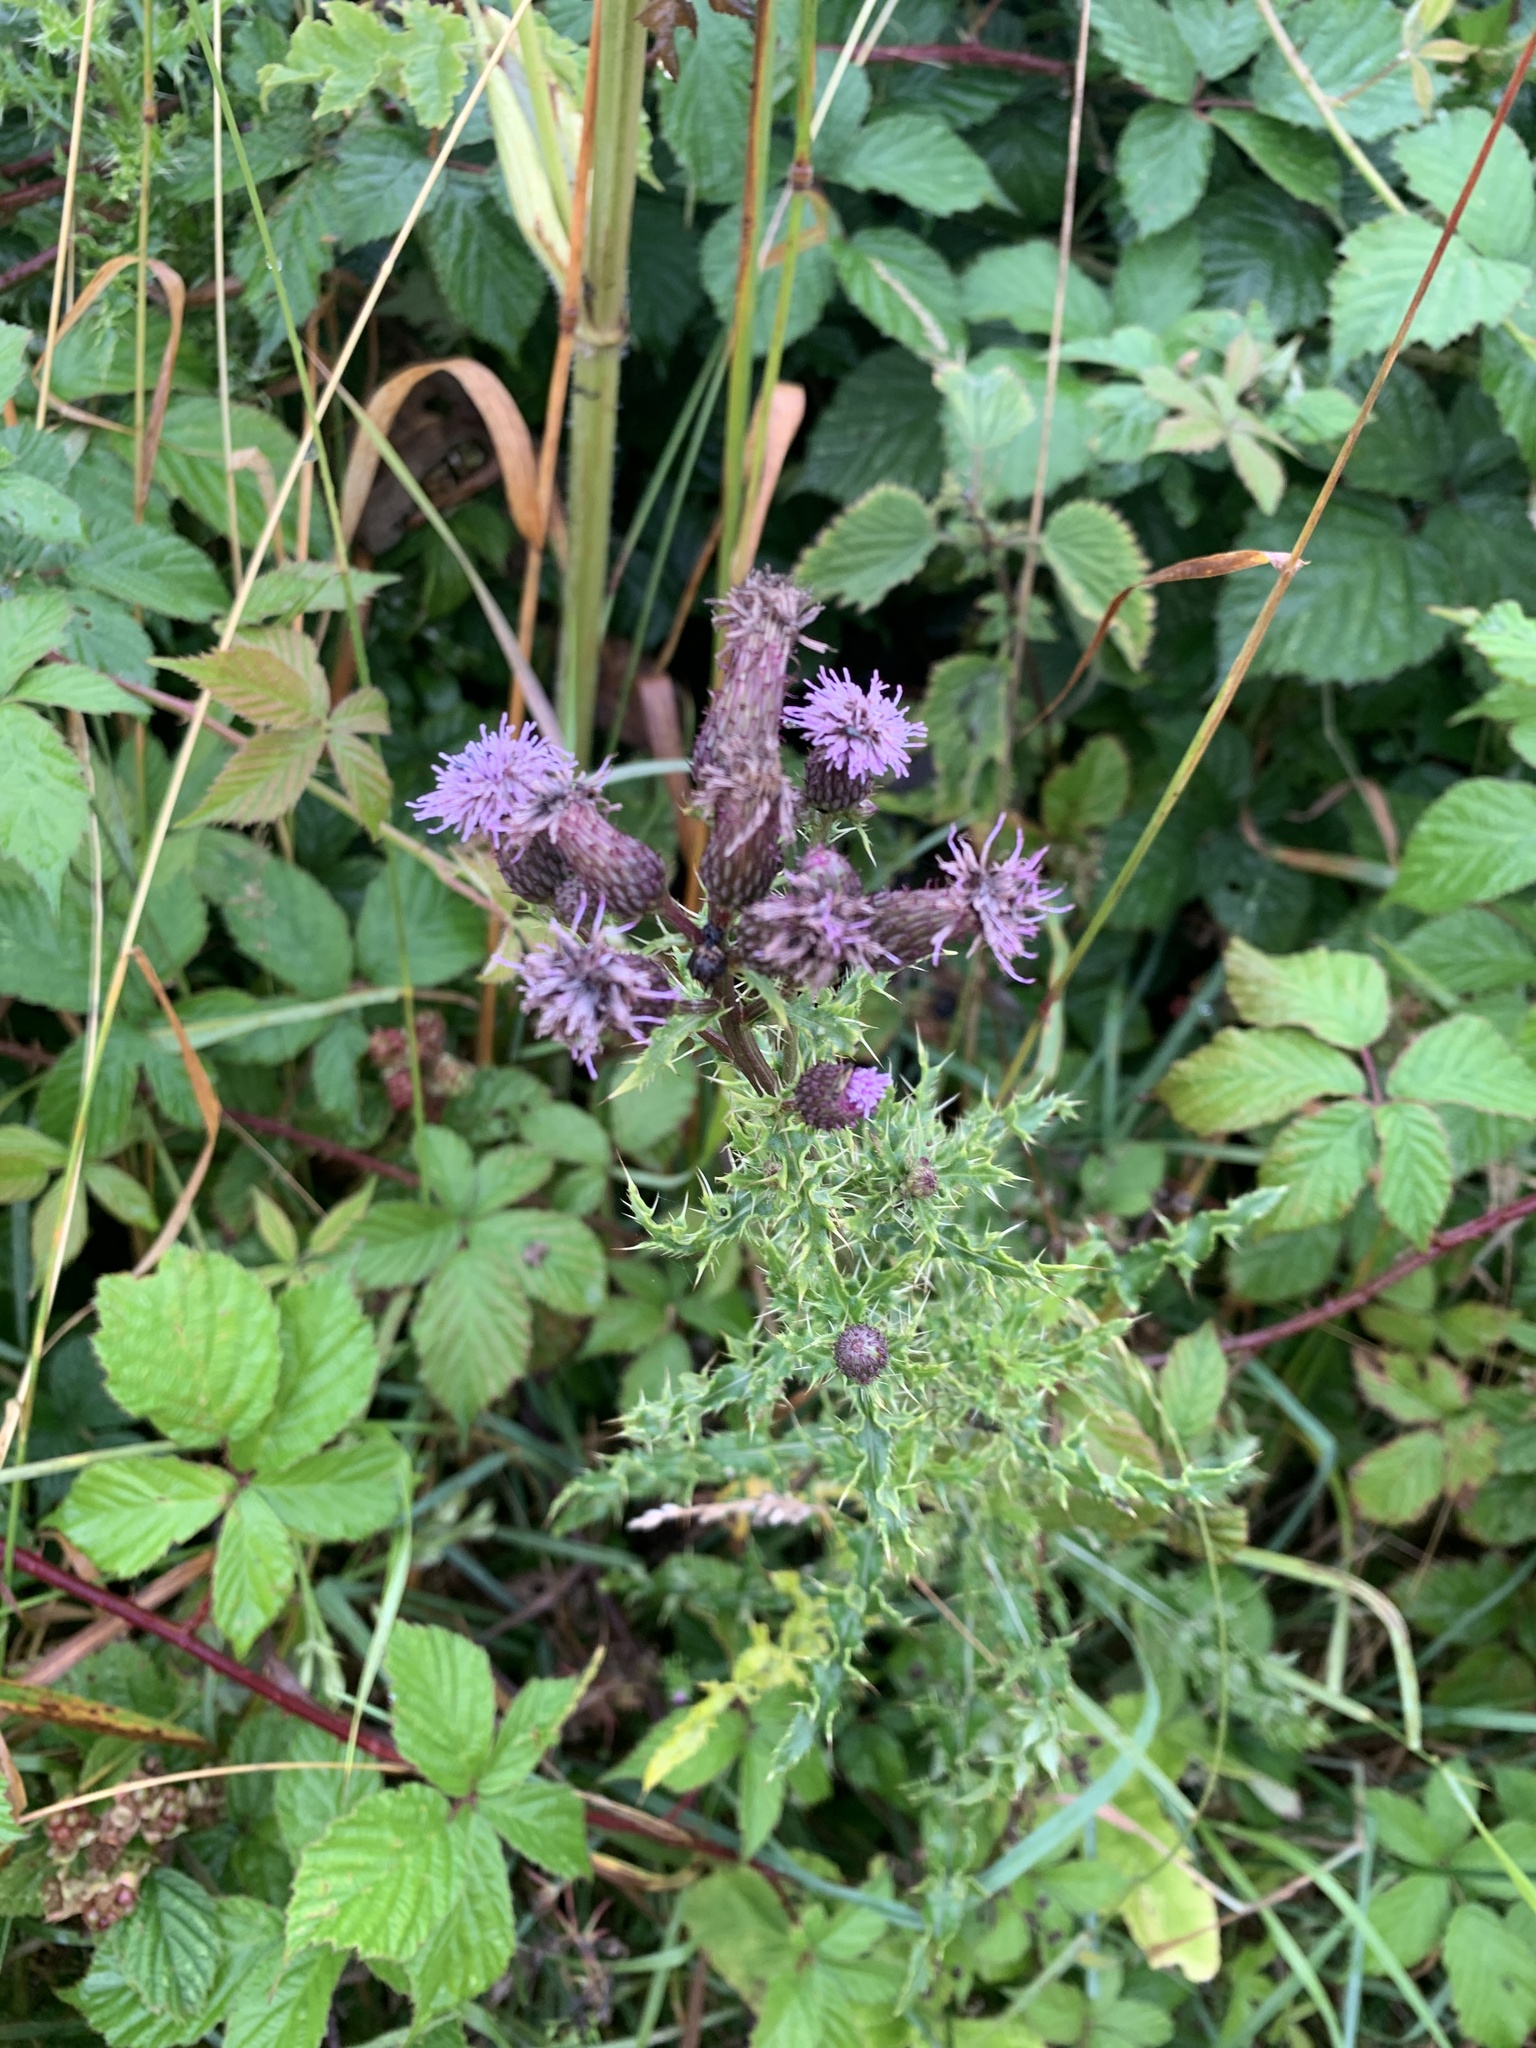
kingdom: Plantae
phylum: Tracheophyta
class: Magnoliopsida
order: Asterales
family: Asteraceae
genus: Cirsium
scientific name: Cirsium arvense
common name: Creeping thistle
